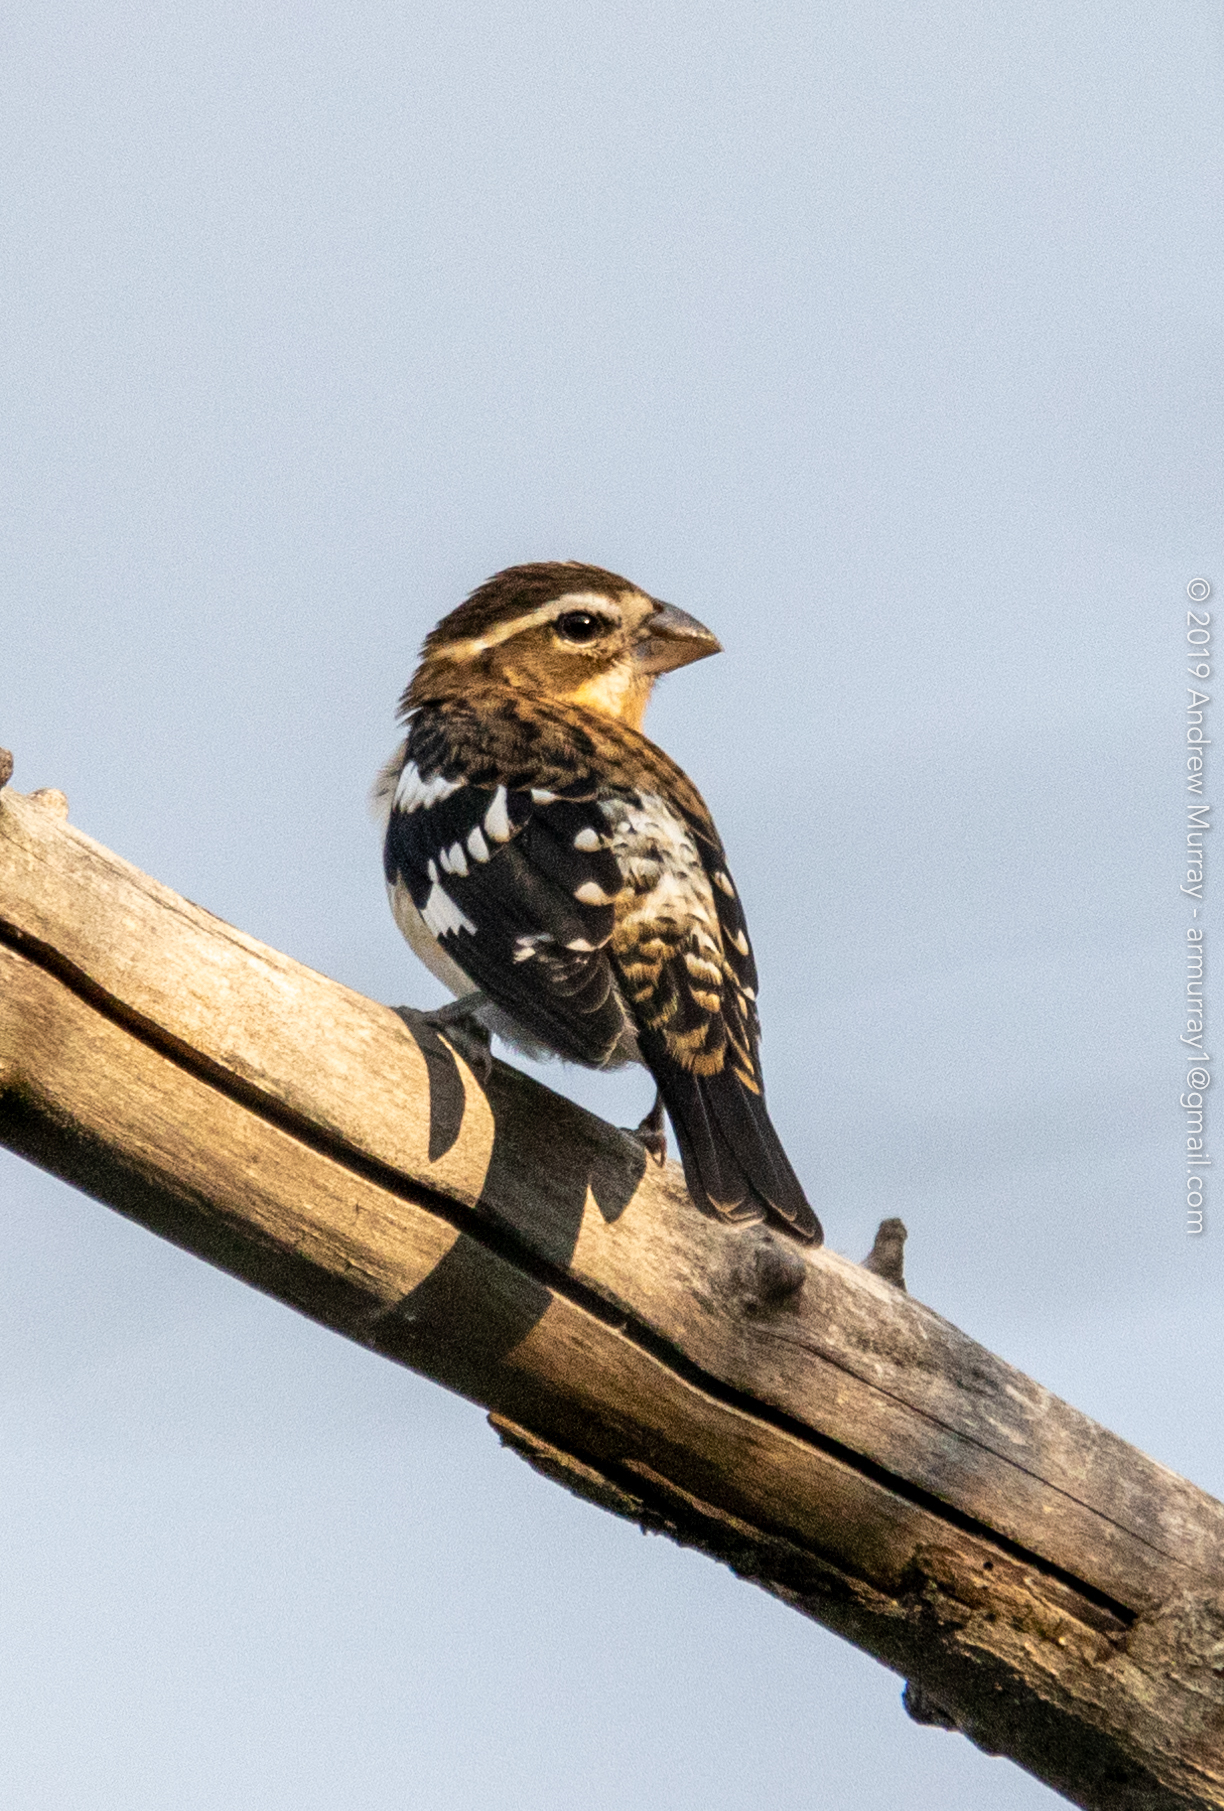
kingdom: Animalia
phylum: Chordata
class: Aves
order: Passeriformes
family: Cardinalidae
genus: Pheucticus
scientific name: Pheucticus ludovicianus
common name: Rose-breasted grosbeak
